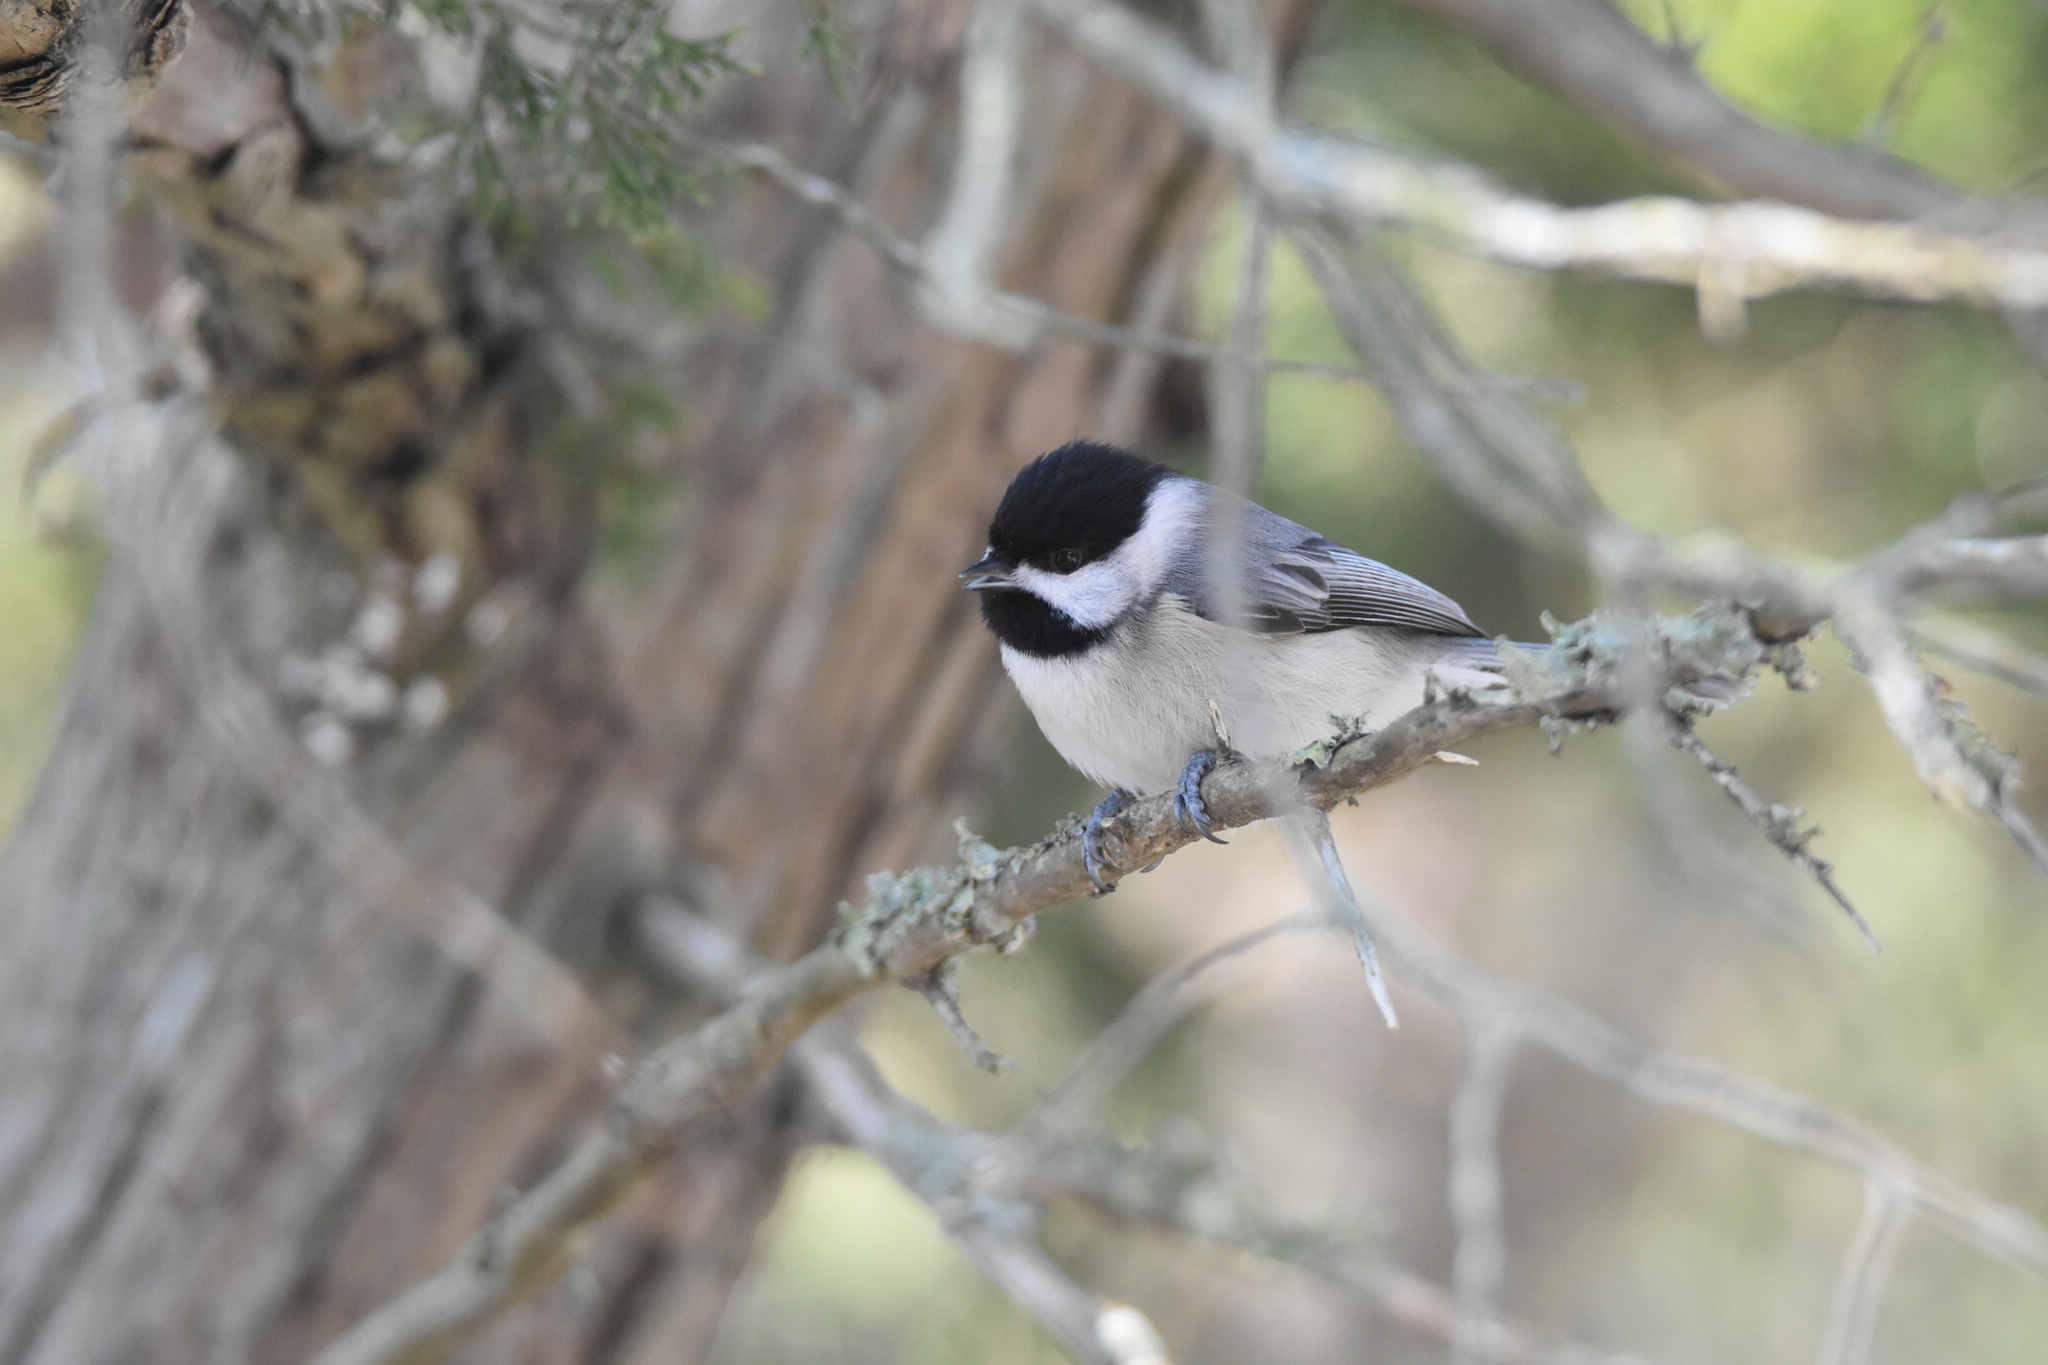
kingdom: Animalia
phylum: Chordata
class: Aves
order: Passeriformes
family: Paridae
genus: Poecile
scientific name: Poecile carolinensis
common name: Carolina chickadee
